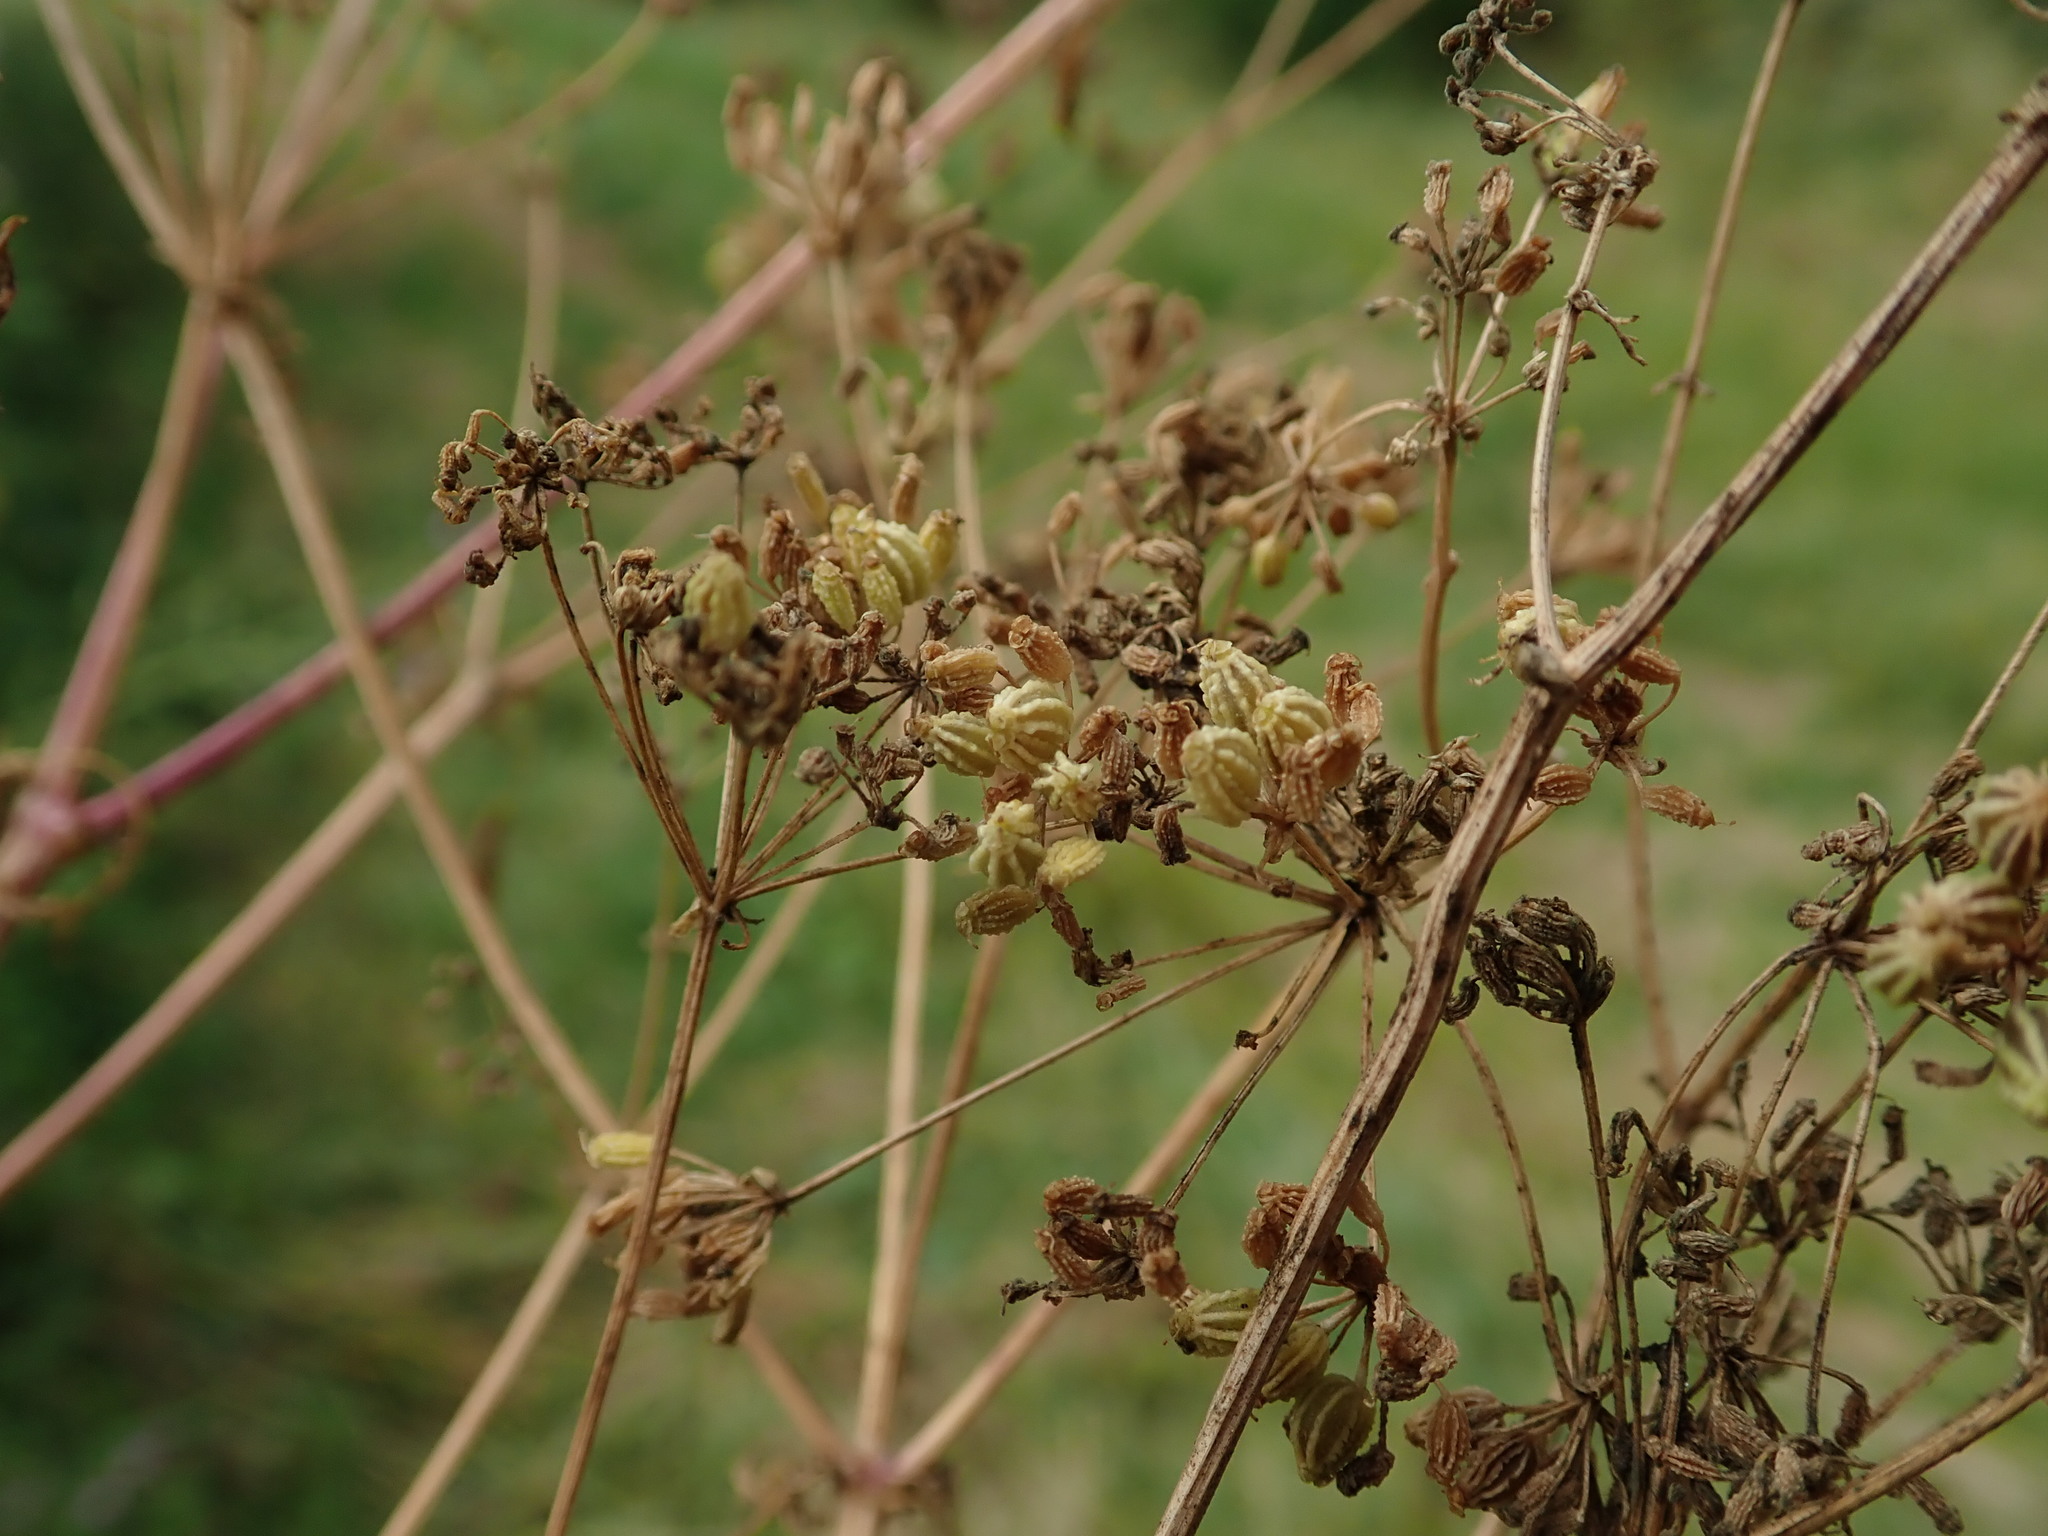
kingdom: Plantae
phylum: Tracheophyta
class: Magnoliopsida
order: Apiales
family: Apiaceae
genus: Conium
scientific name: Conium maculatum
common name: Hemlock
